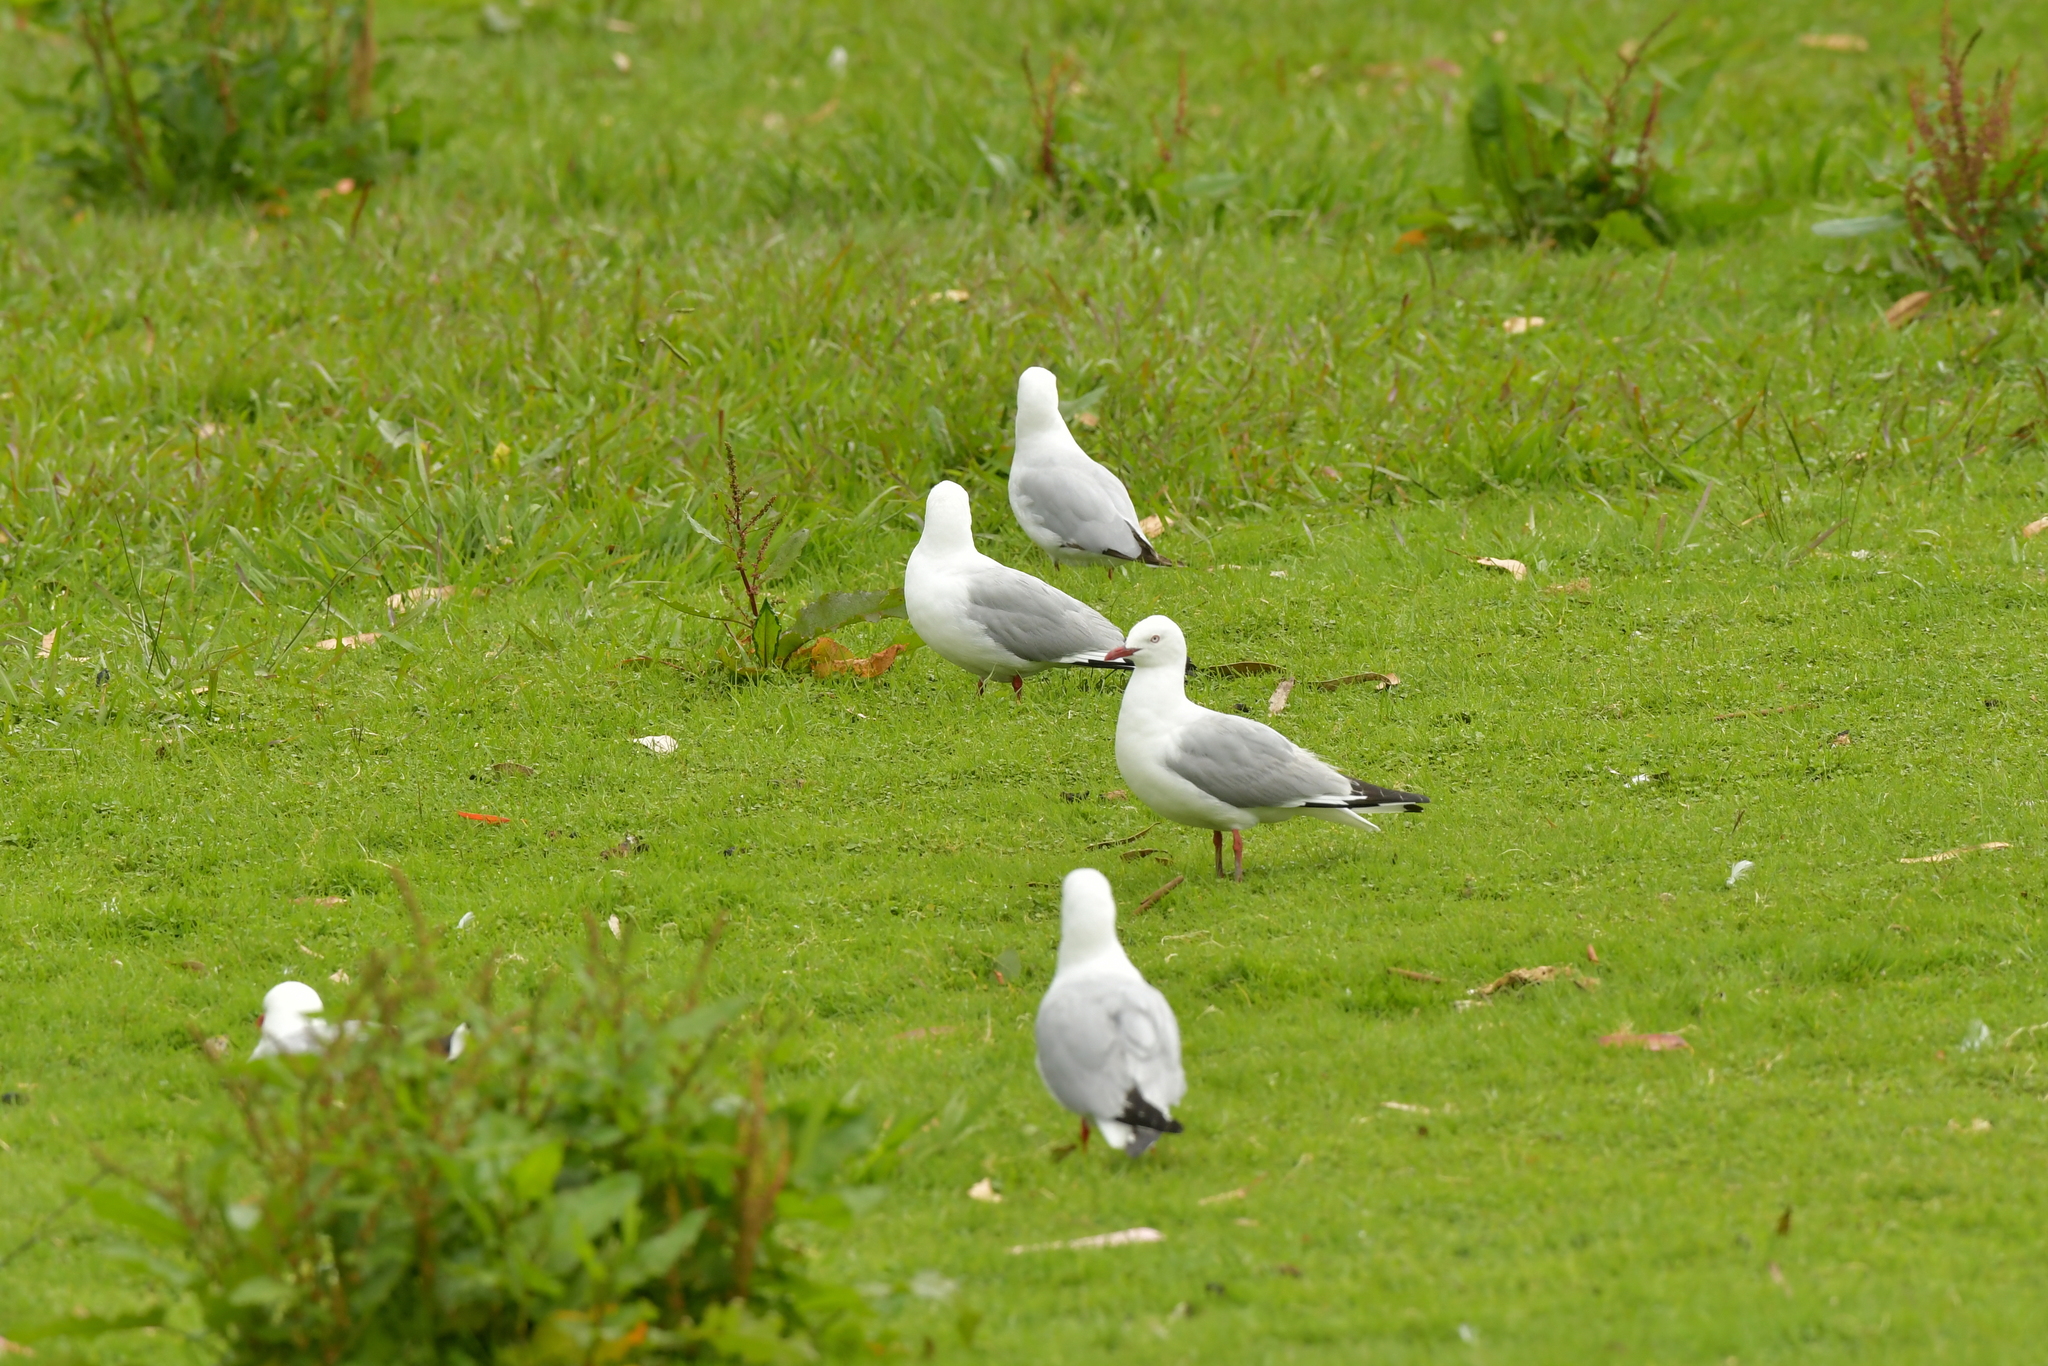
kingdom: Animalia
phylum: Chordata
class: Aves
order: Charadriiformes
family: Laridae
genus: Chroicocephalus
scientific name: Chroicocephalus novaehollandiae
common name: Silver gull
